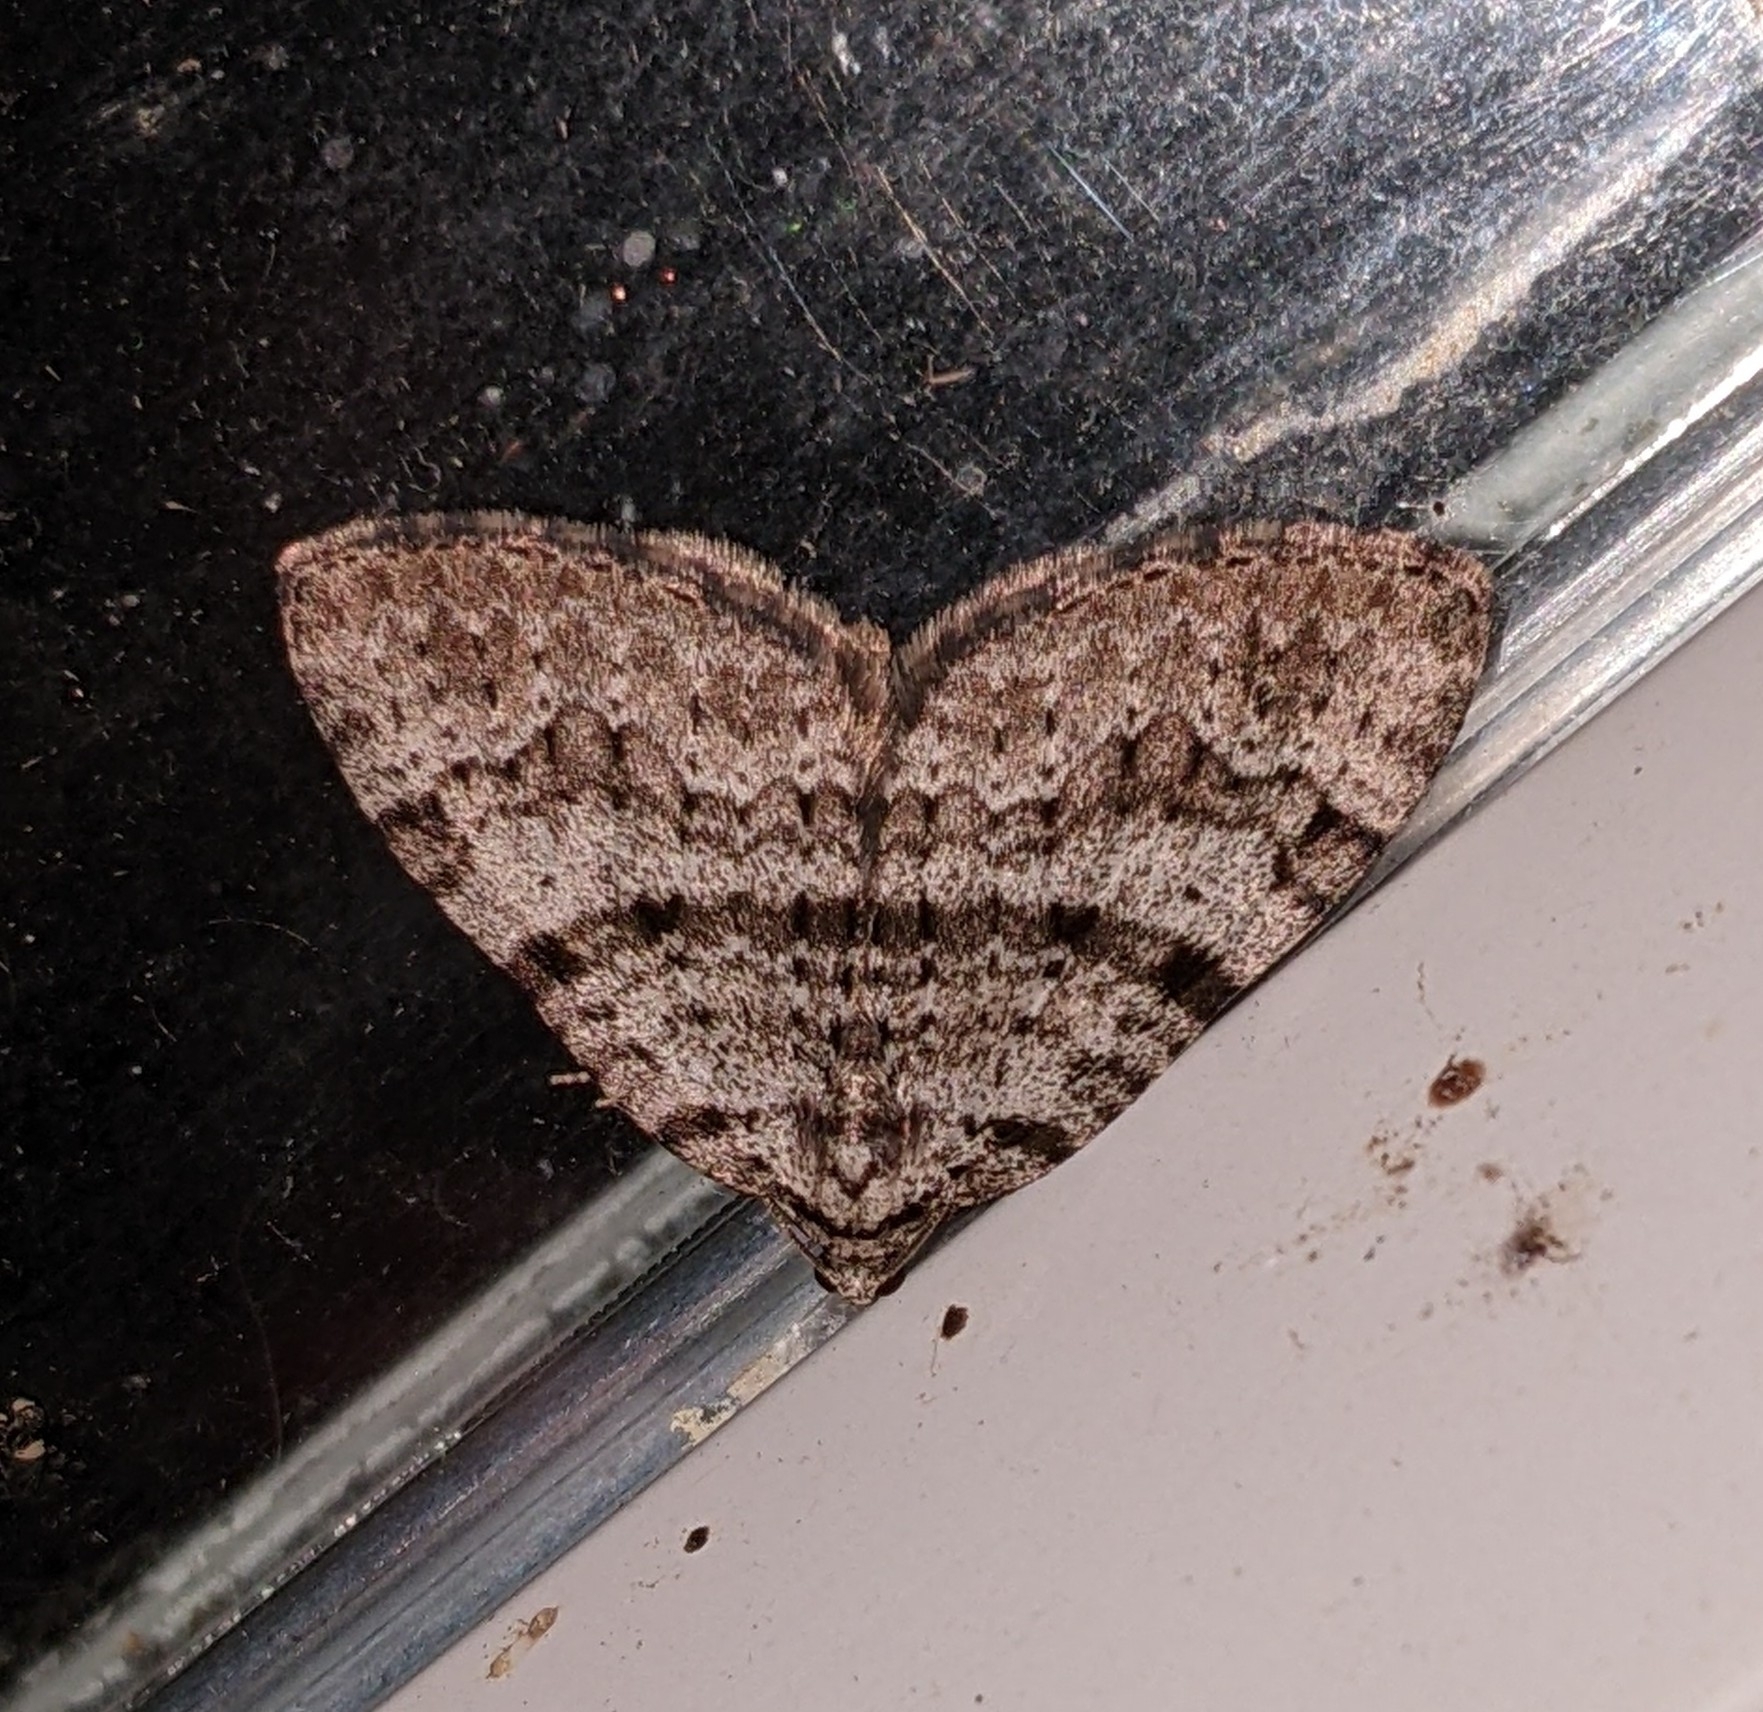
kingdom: Animalia
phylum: Arthropoda
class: Insecta
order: Lepidoptera
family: Geometridae
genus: Perizoma
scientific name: Perizoma curvilinea
